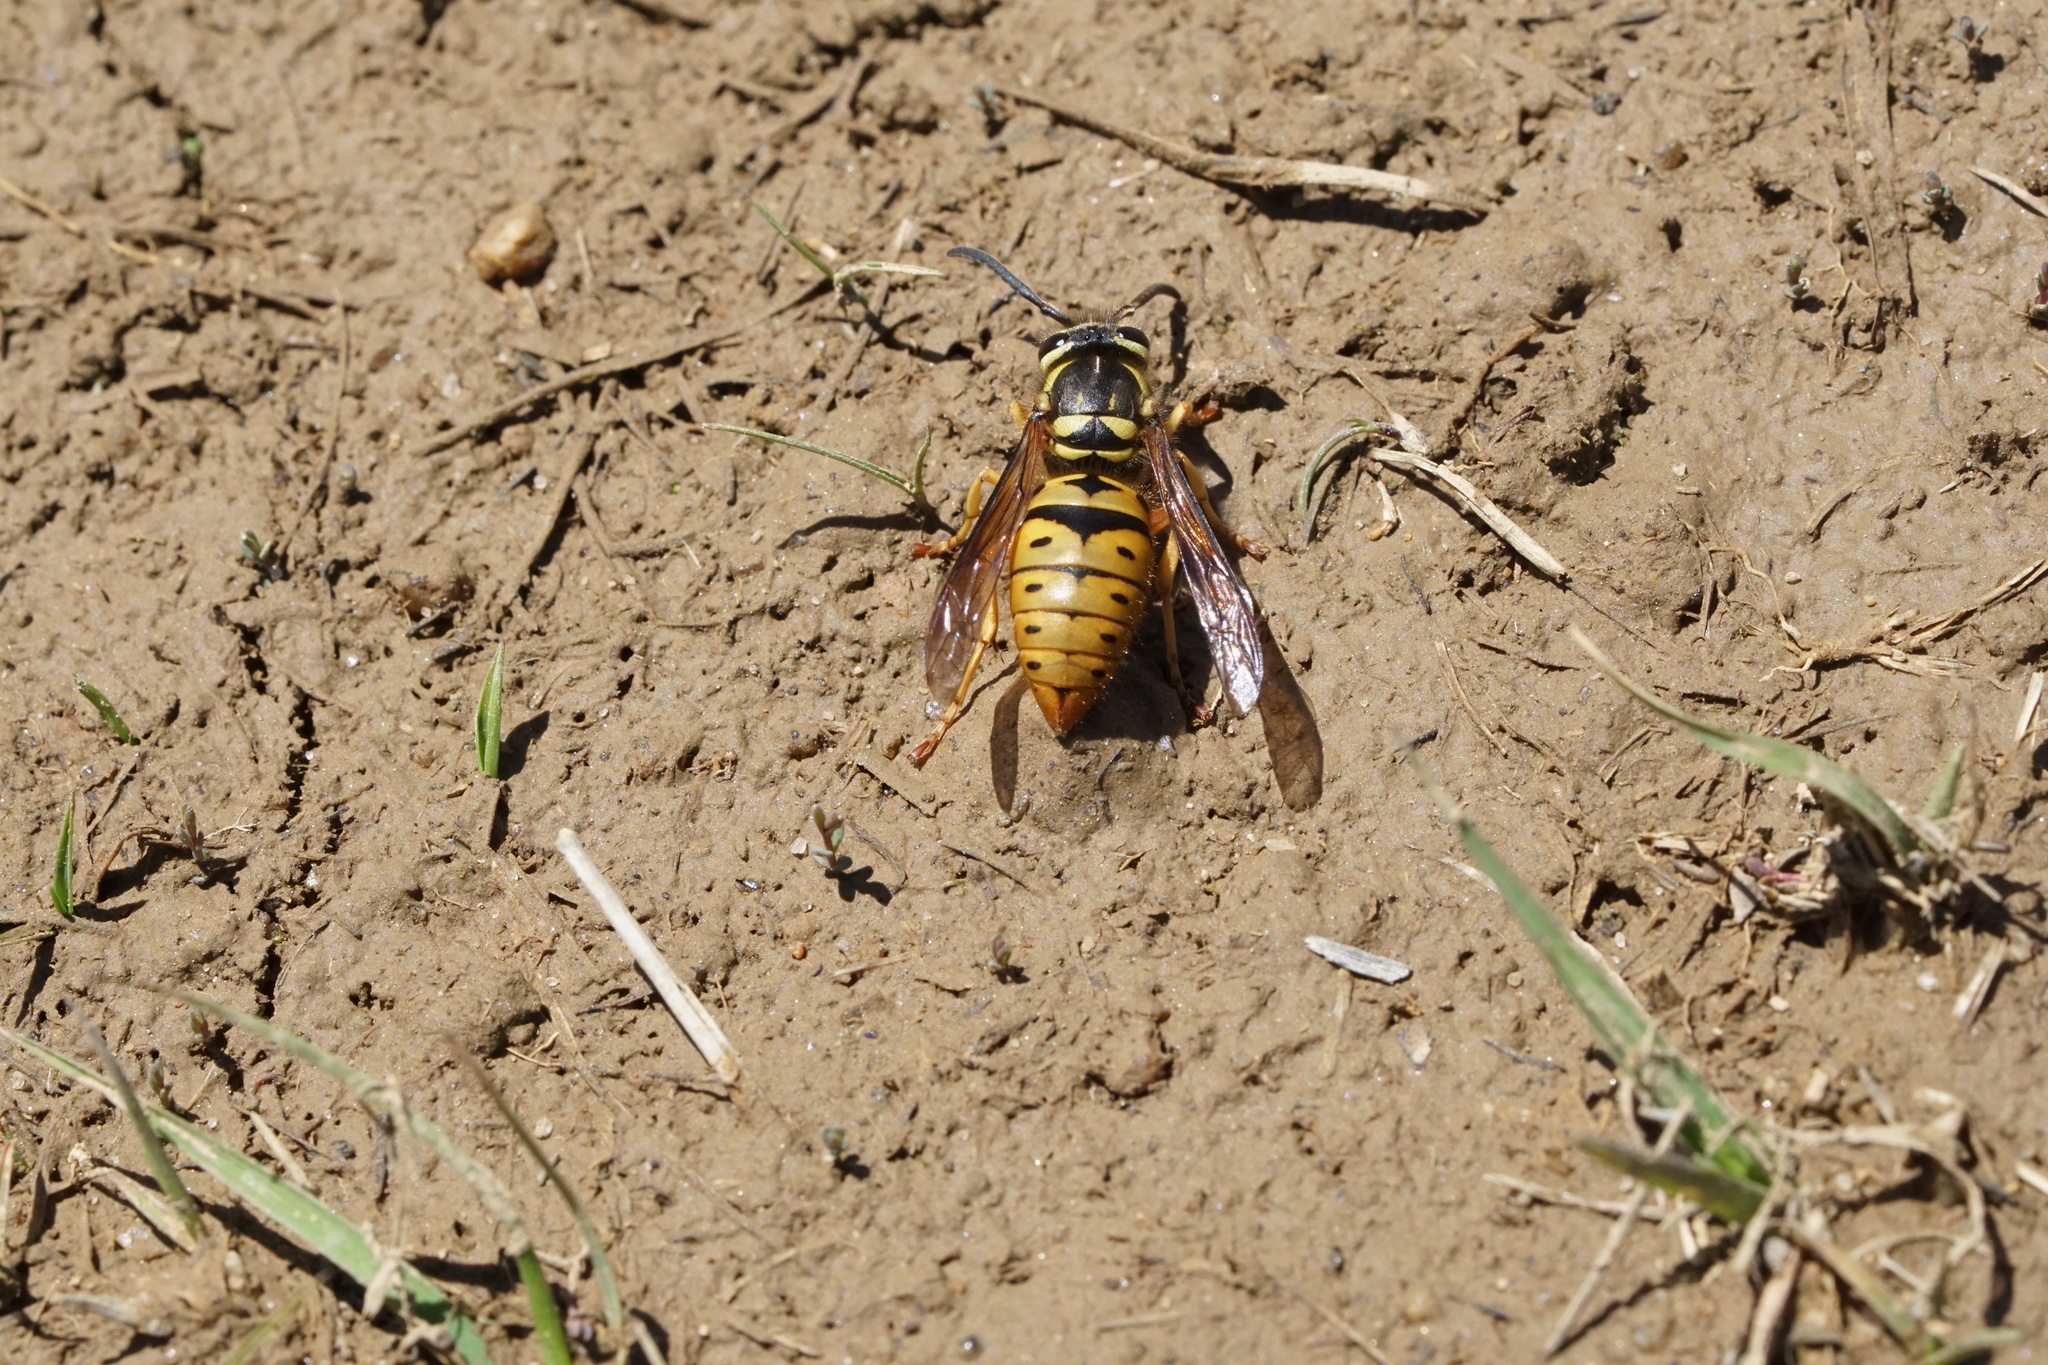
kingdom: Animalia
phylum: Arthropoda
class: Insecta
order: Hymenoptera
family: Vespidae
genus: Vespula
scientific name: Vespula maculifrons
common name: Eastern yellowjacket
